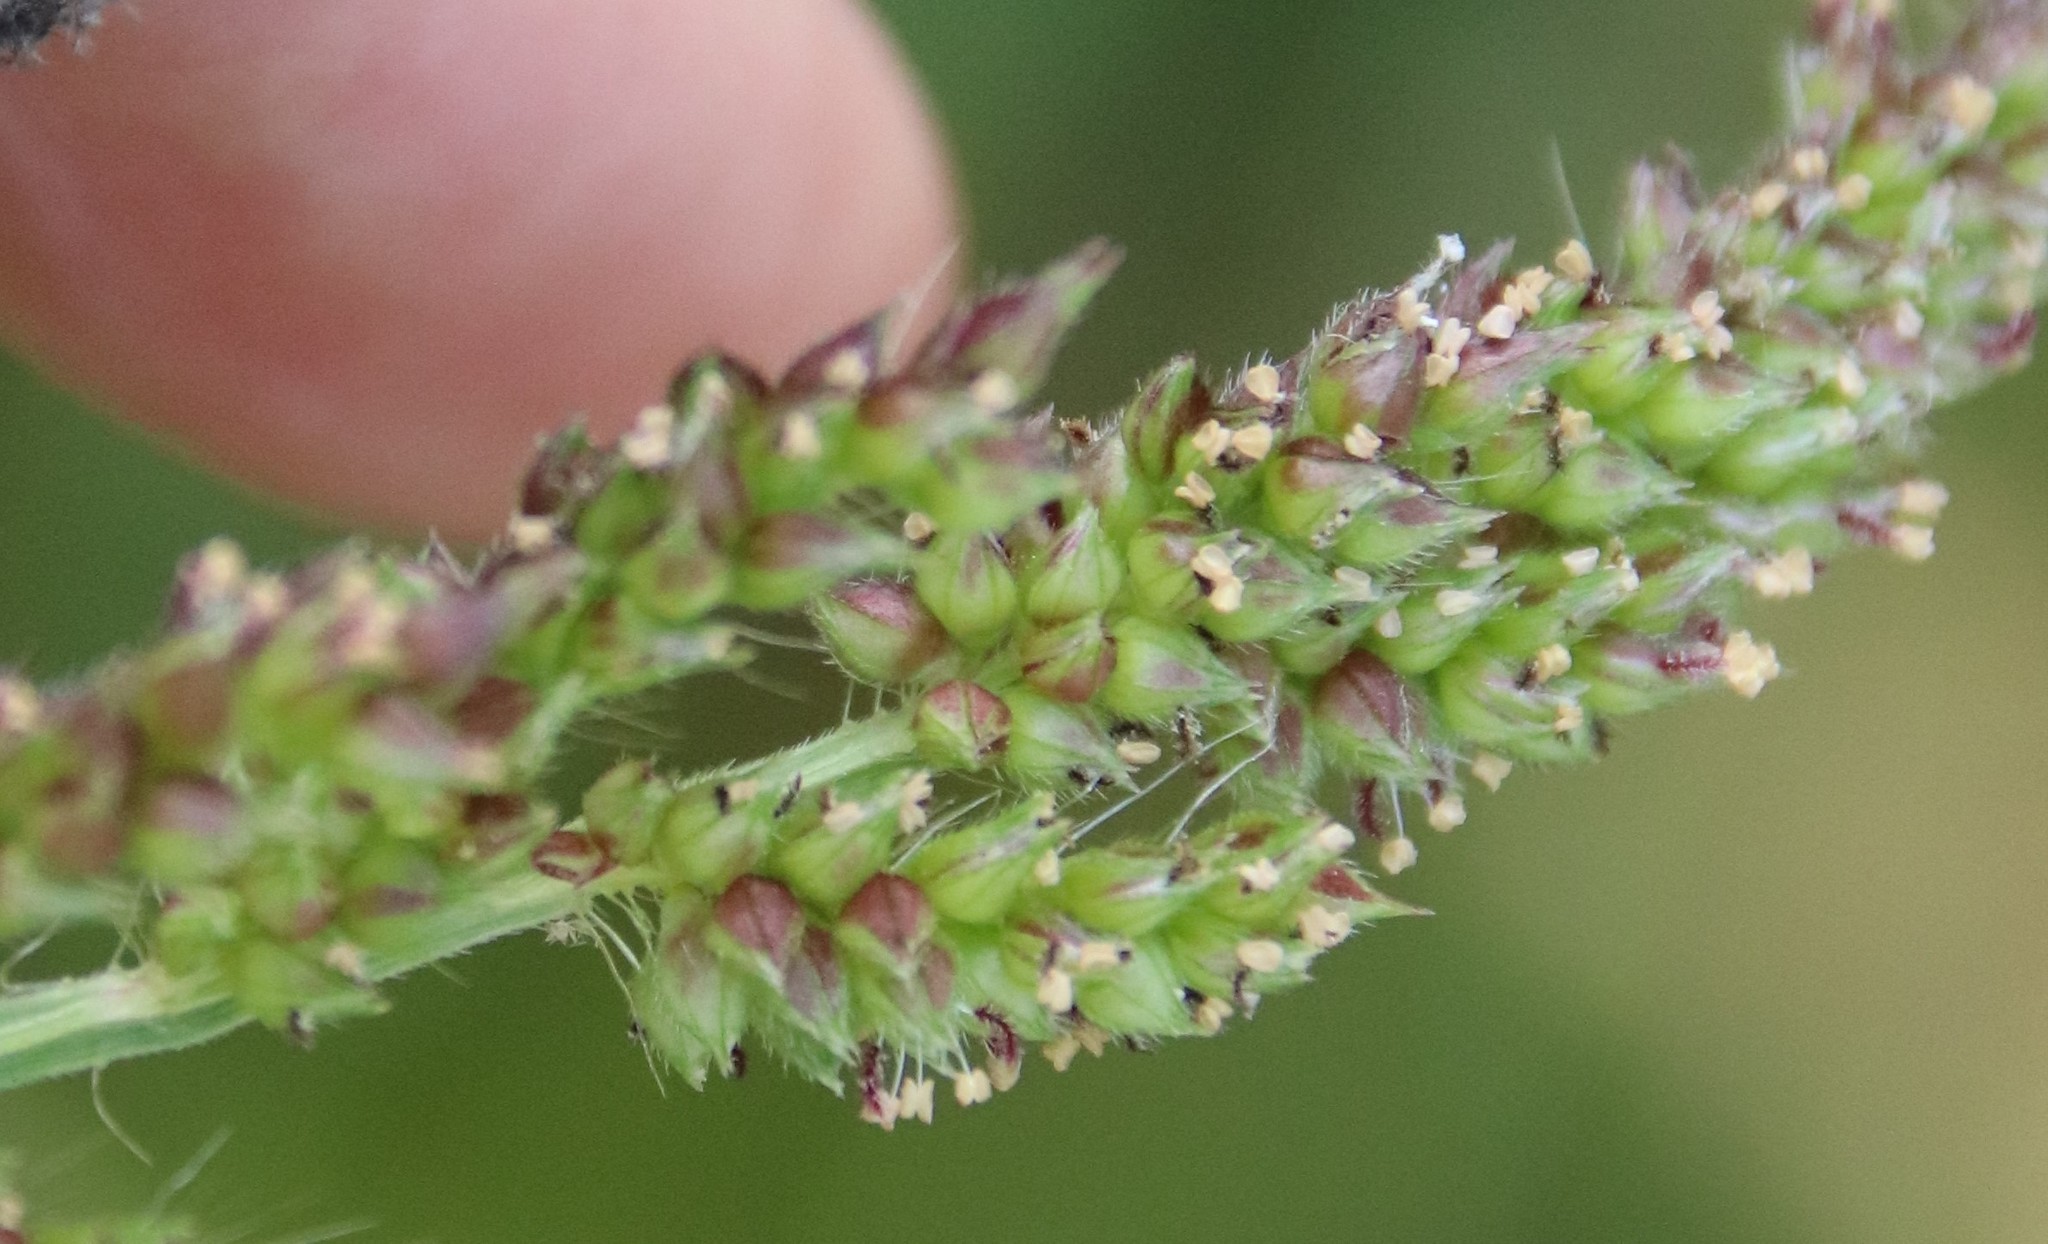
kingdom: Plantae
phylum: Tracheophyta
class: Liliopsida
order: Poales
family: Poaceae
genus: Echinochloa
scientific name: Echinochloa crus-galli
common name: Cockspur
